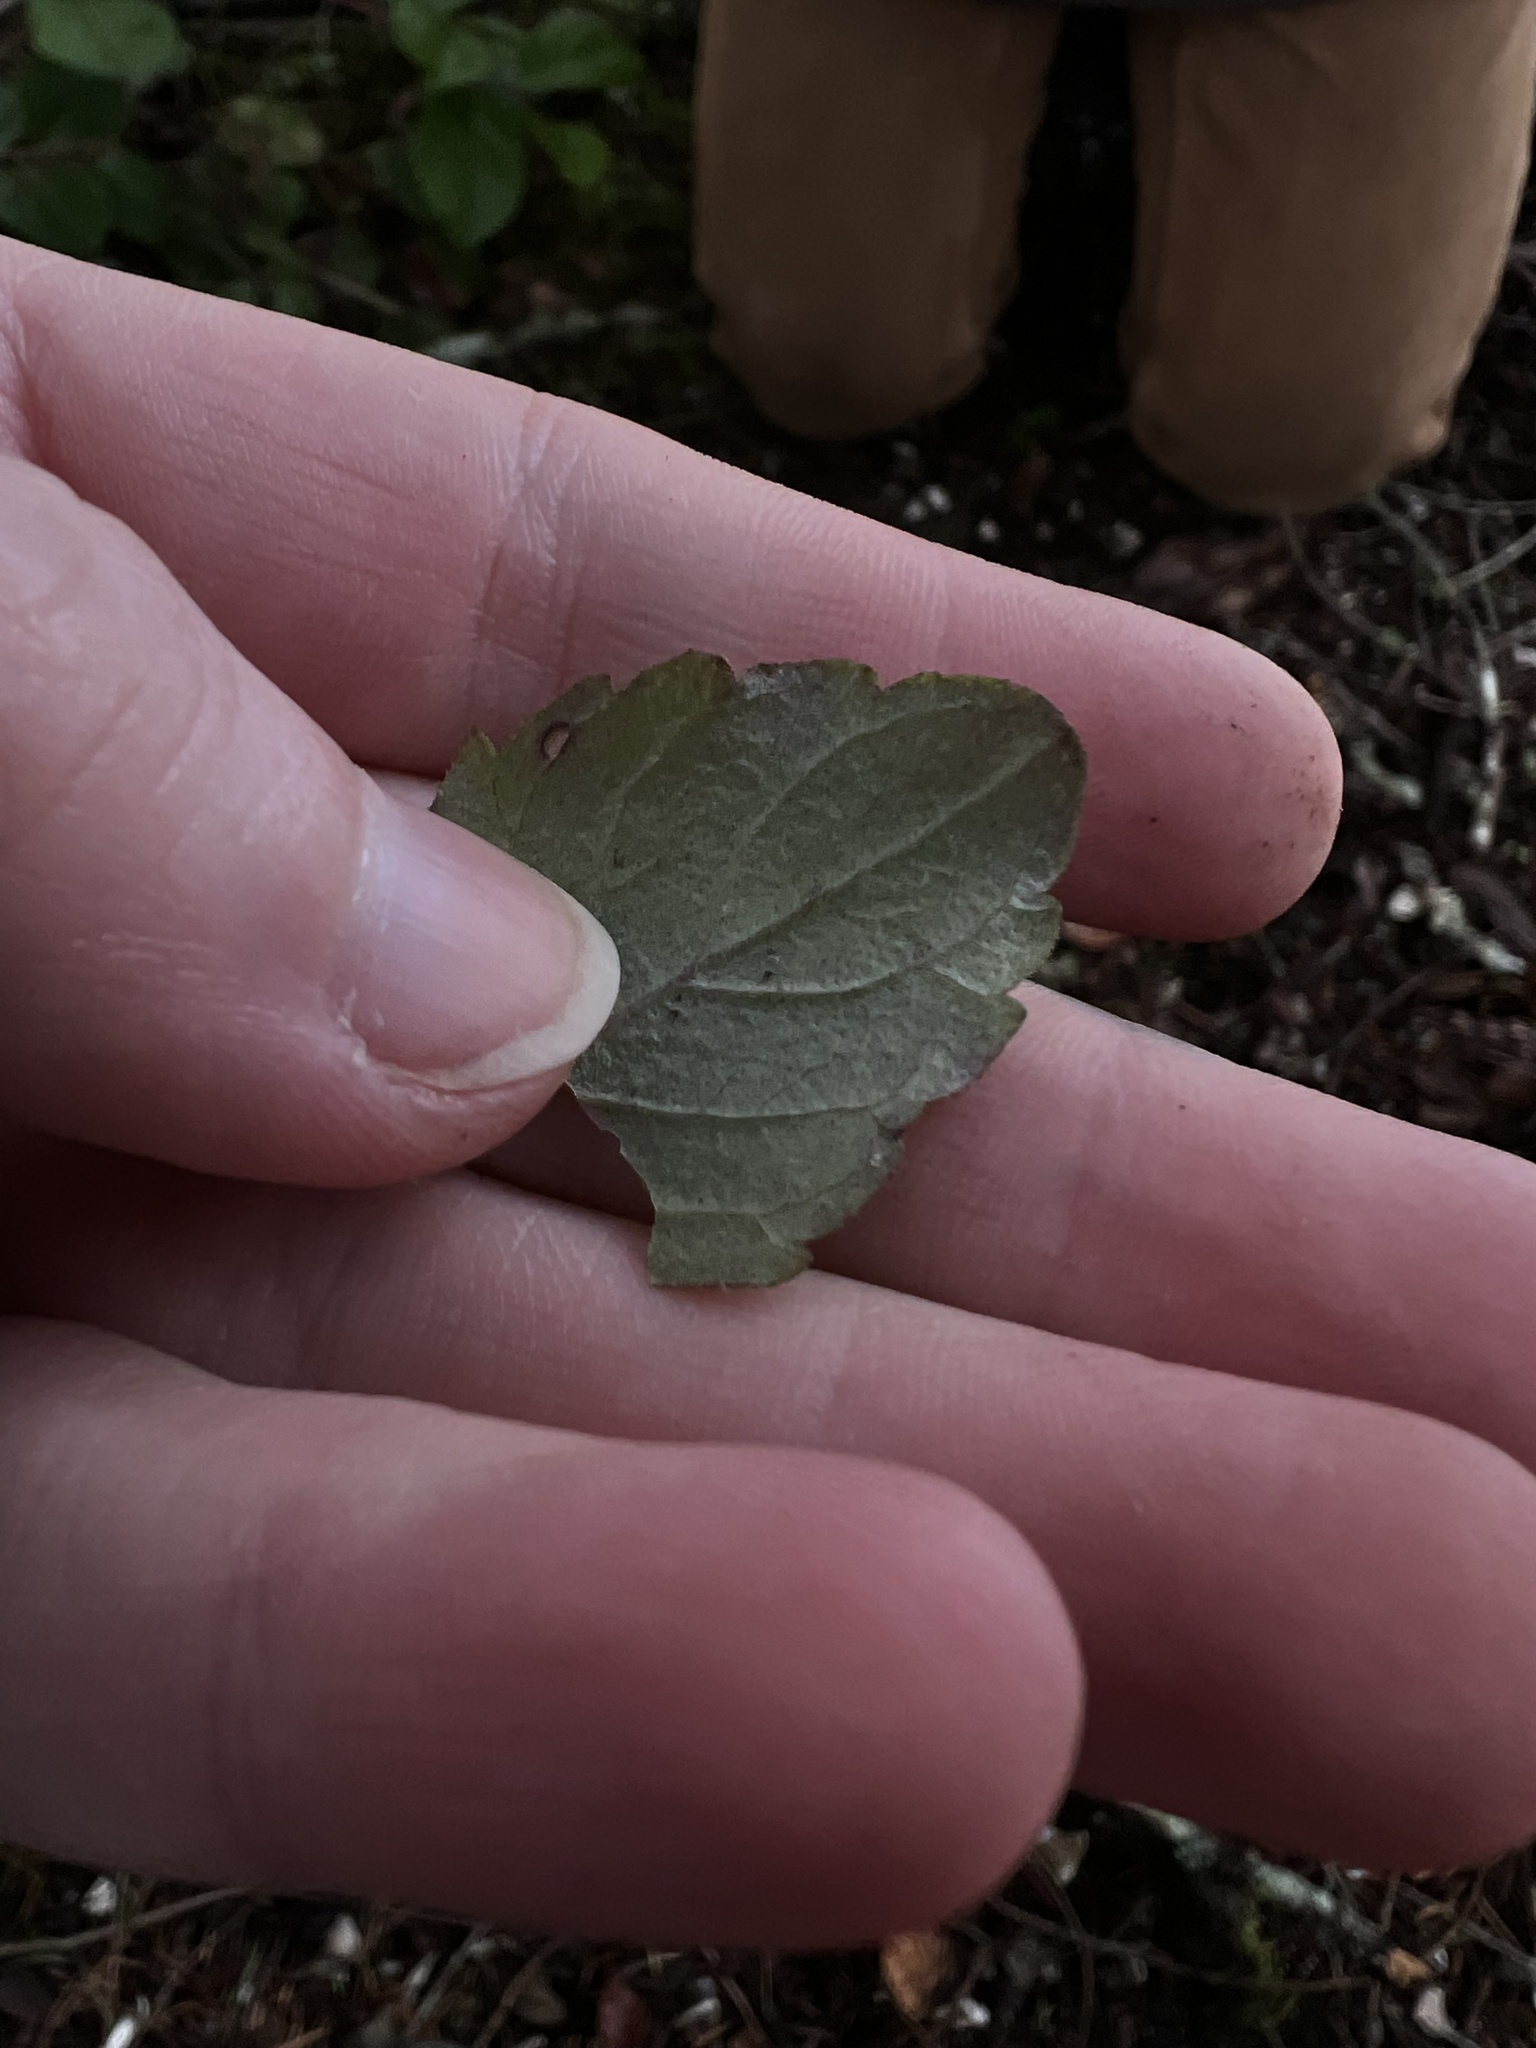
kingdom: Plantae
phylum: Tracheophyta
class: Magnoliopsida
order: Lamiales
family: Lamiaceae
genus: Micromeria
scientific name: Micromeria douglasii
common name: Yerba buena
